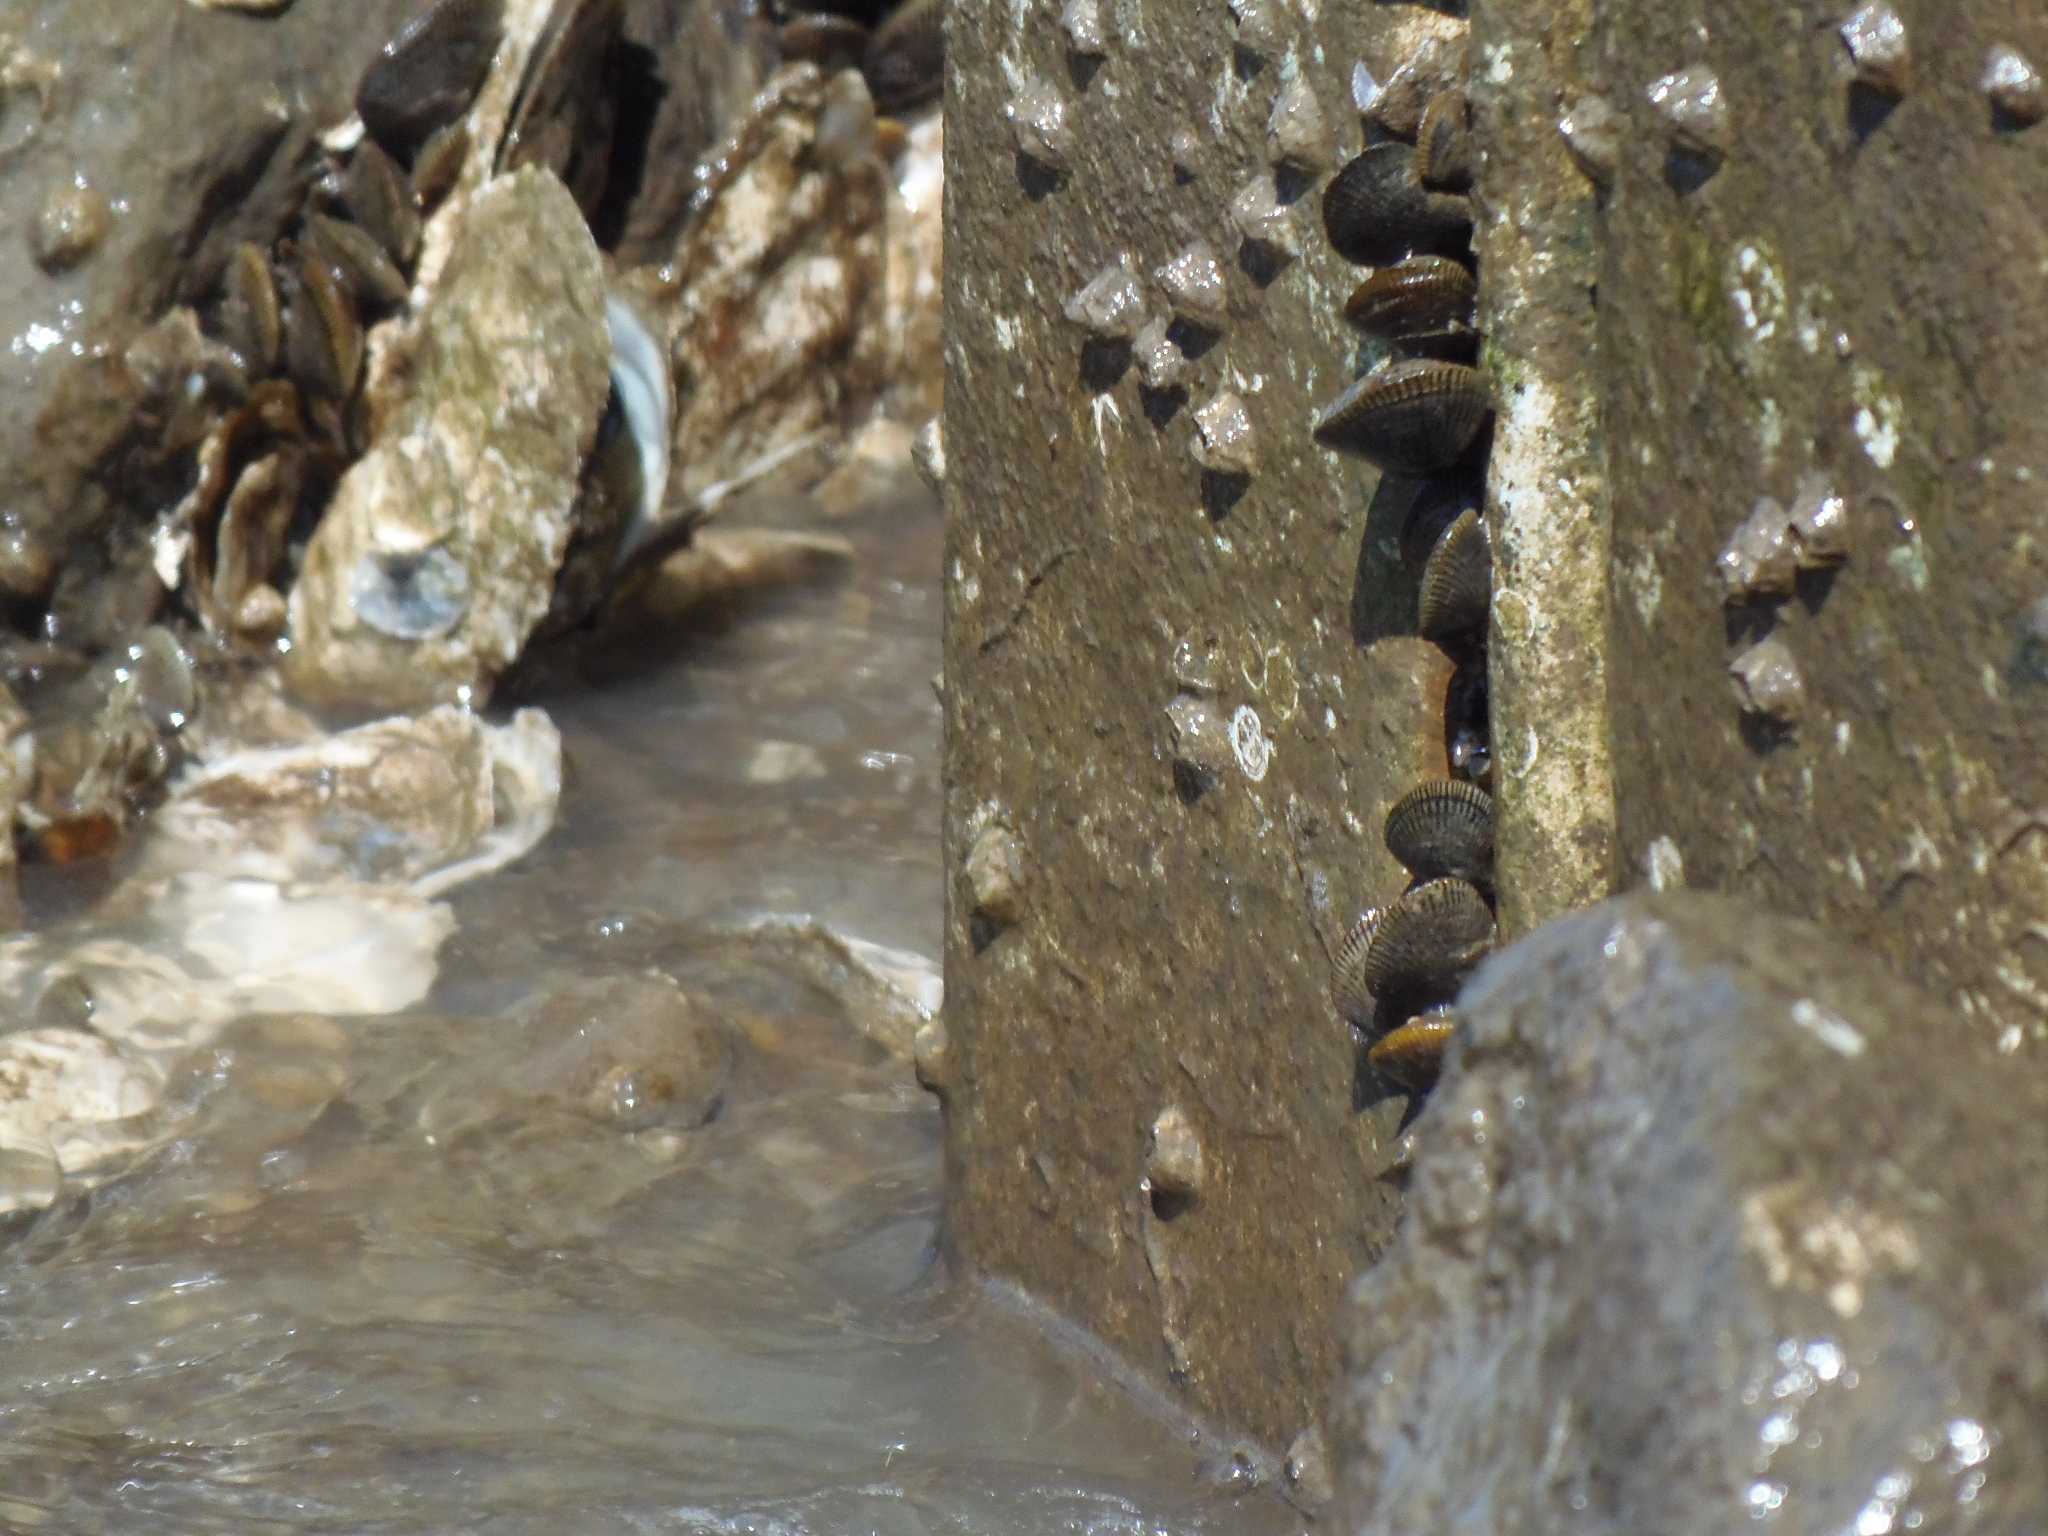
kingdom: Animalia
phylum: Mollusca
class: Bivalvia
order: Mytilida
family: Mytilidae
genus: Geukensia
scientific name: Geukensia demissa
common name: Ribbed mussel
